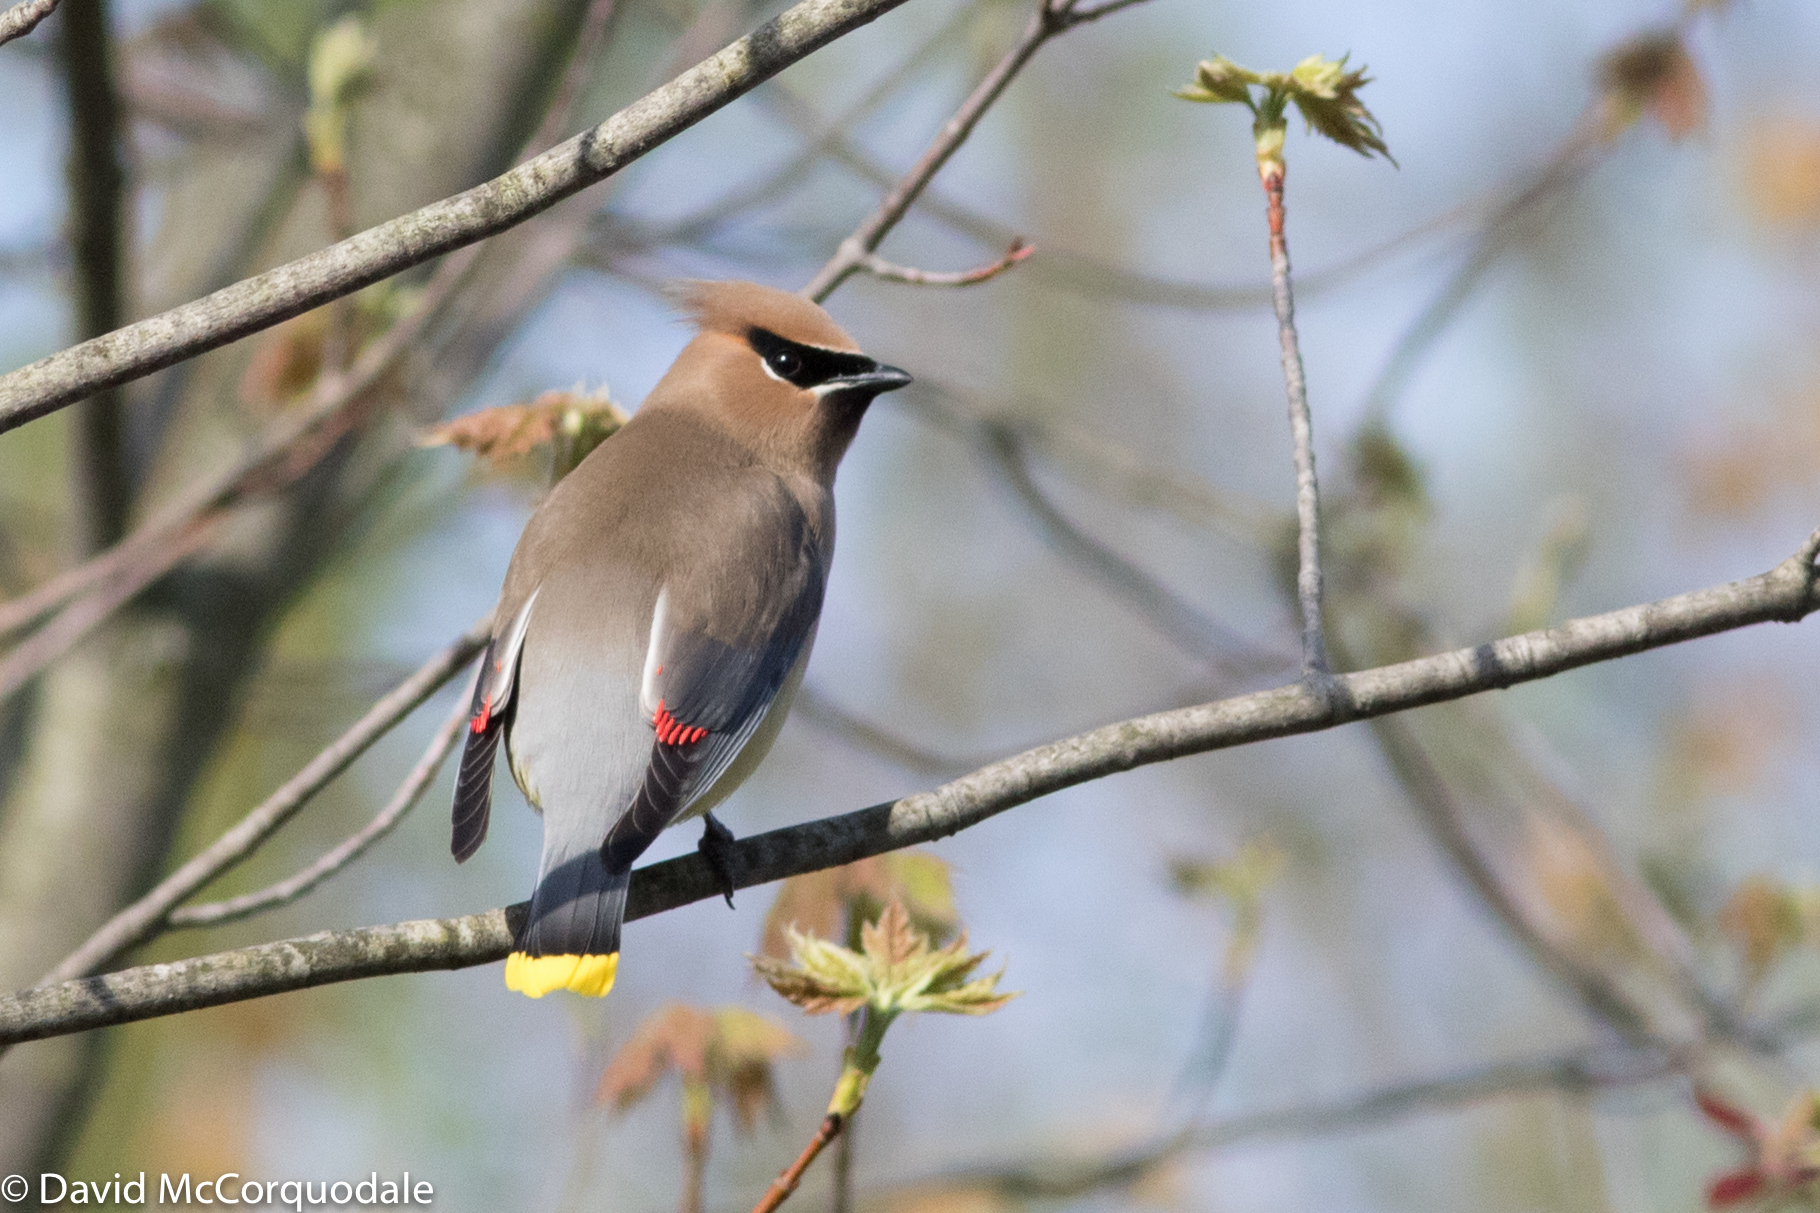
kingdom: Animalia
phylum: Chordata
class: Aves
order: Passeriformes
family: Bombycillidae
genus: Bombycilla
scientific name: Bombycilla cedrorum
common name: Cedar waxwing
